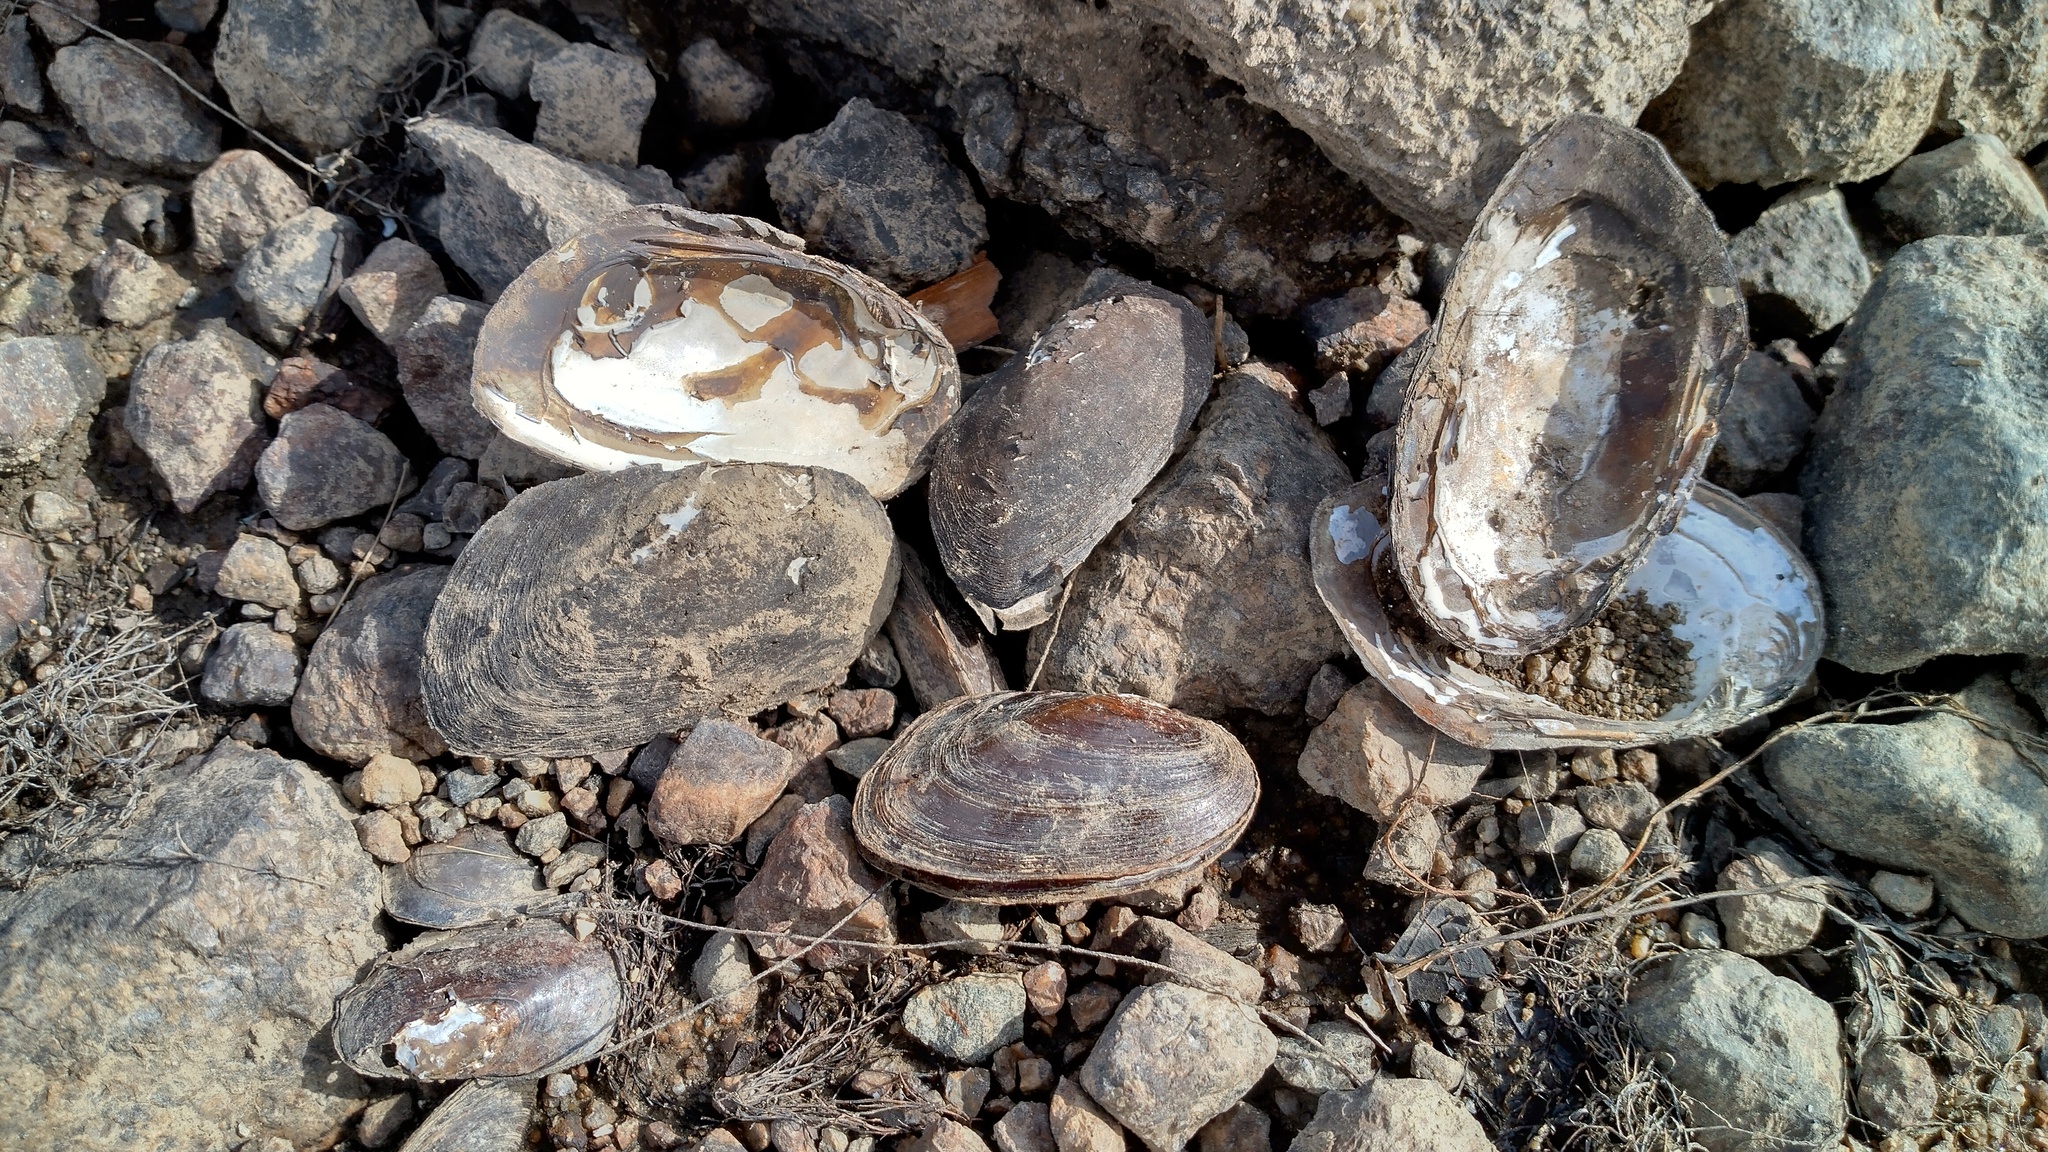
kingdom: Animalia
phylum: Mollusca
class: Bivalvia
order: Unionida
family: Unionidae
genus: Elliptio
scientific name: Elliptio complanata
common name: Eastern elliptio
